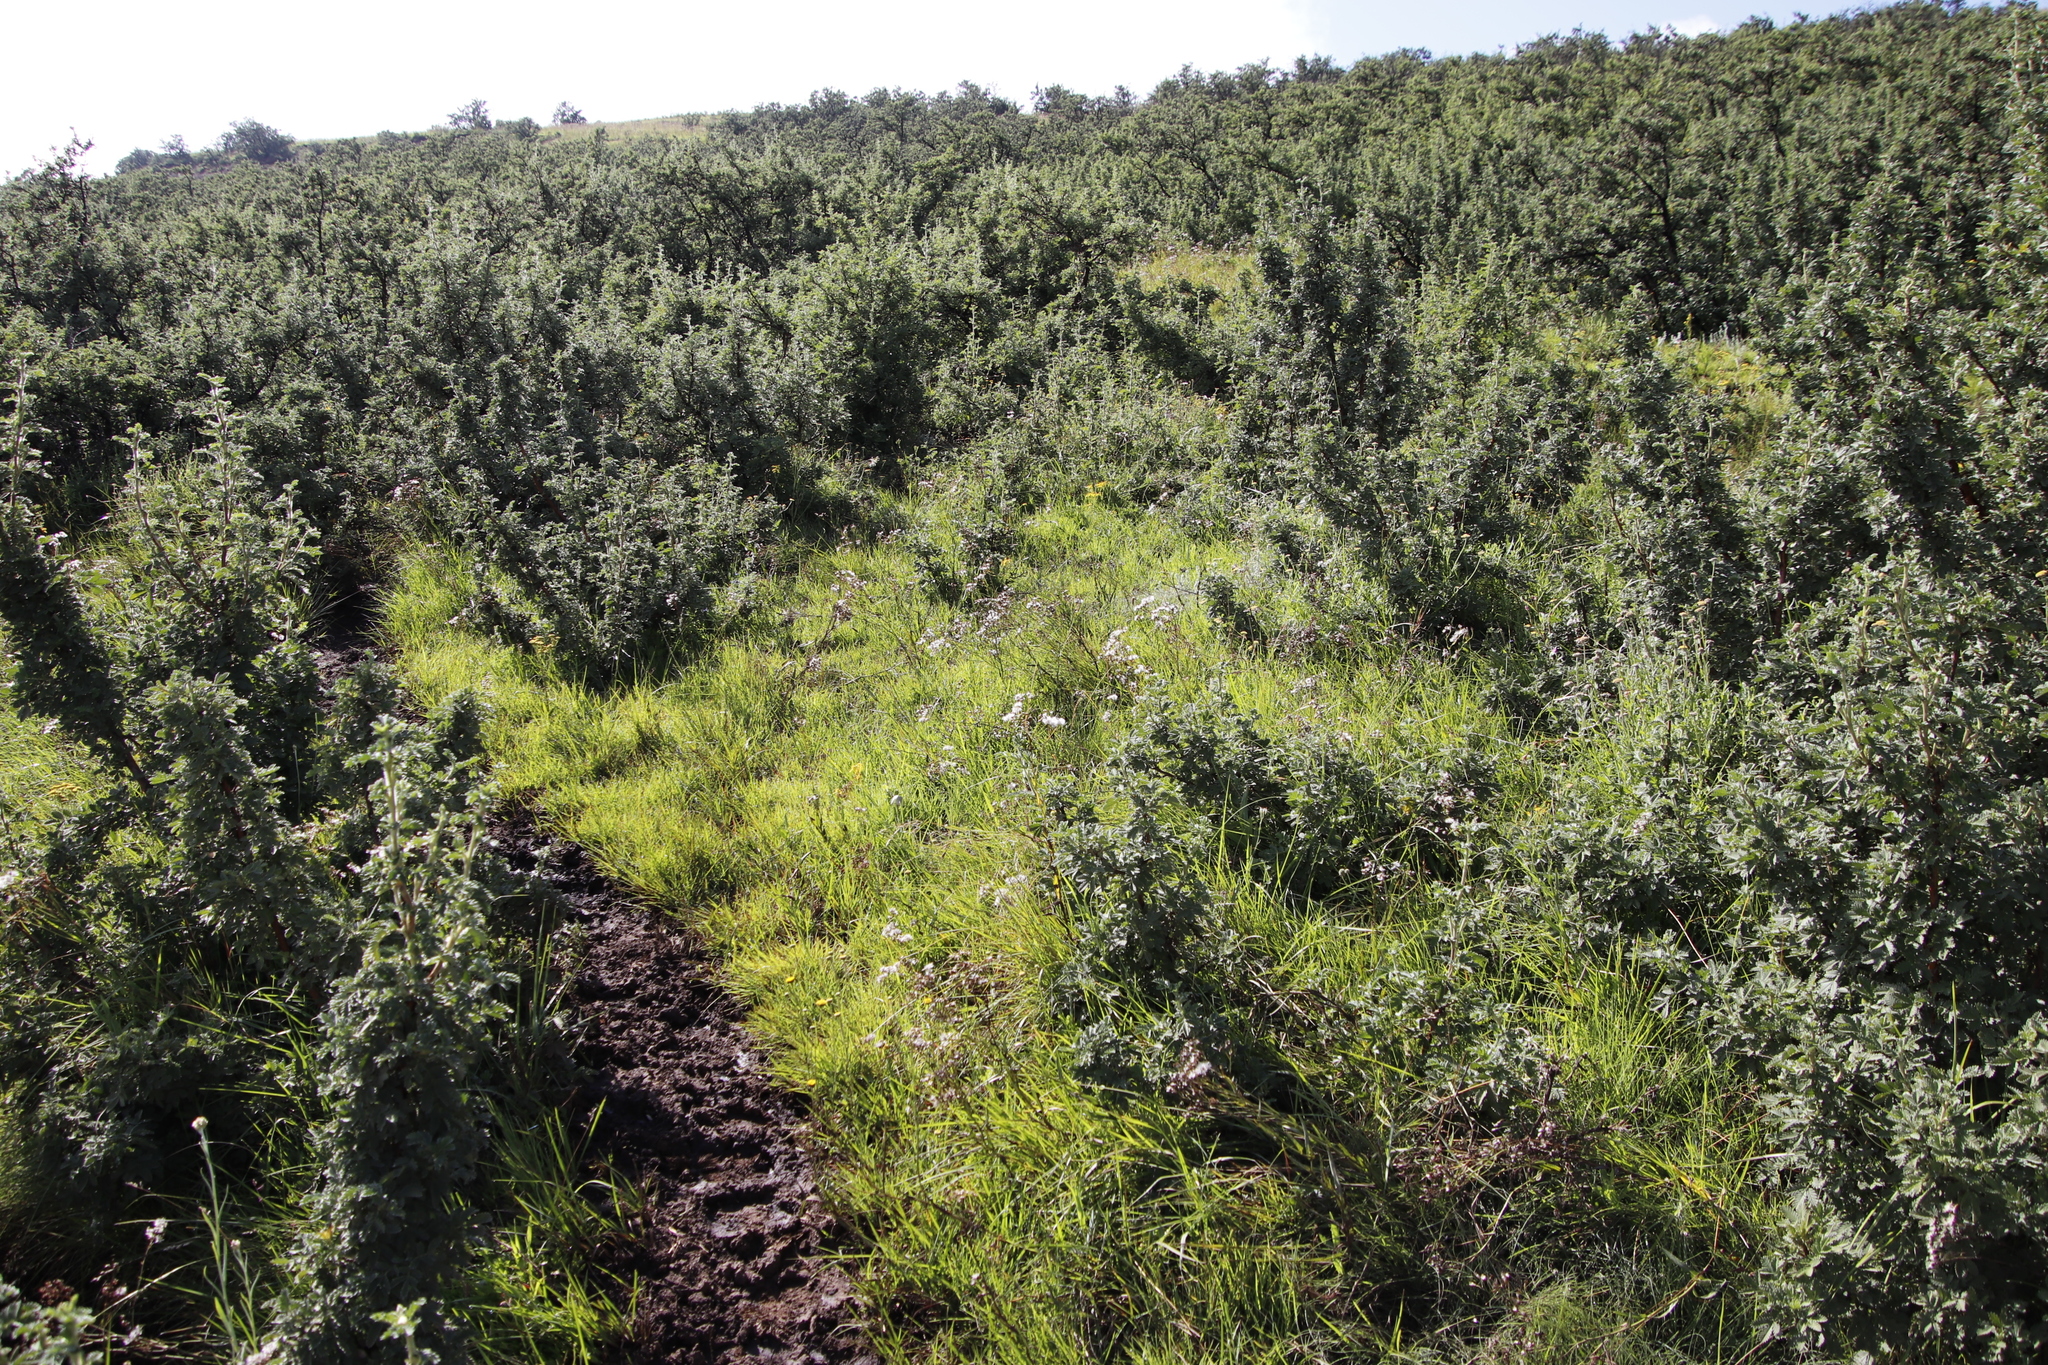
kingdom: Plantae
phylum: Tracheophyta
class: Liliopsida
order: Poales
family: Poaceae
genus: Themeda
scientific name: Themeda triandra
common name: Kangaroo grass
